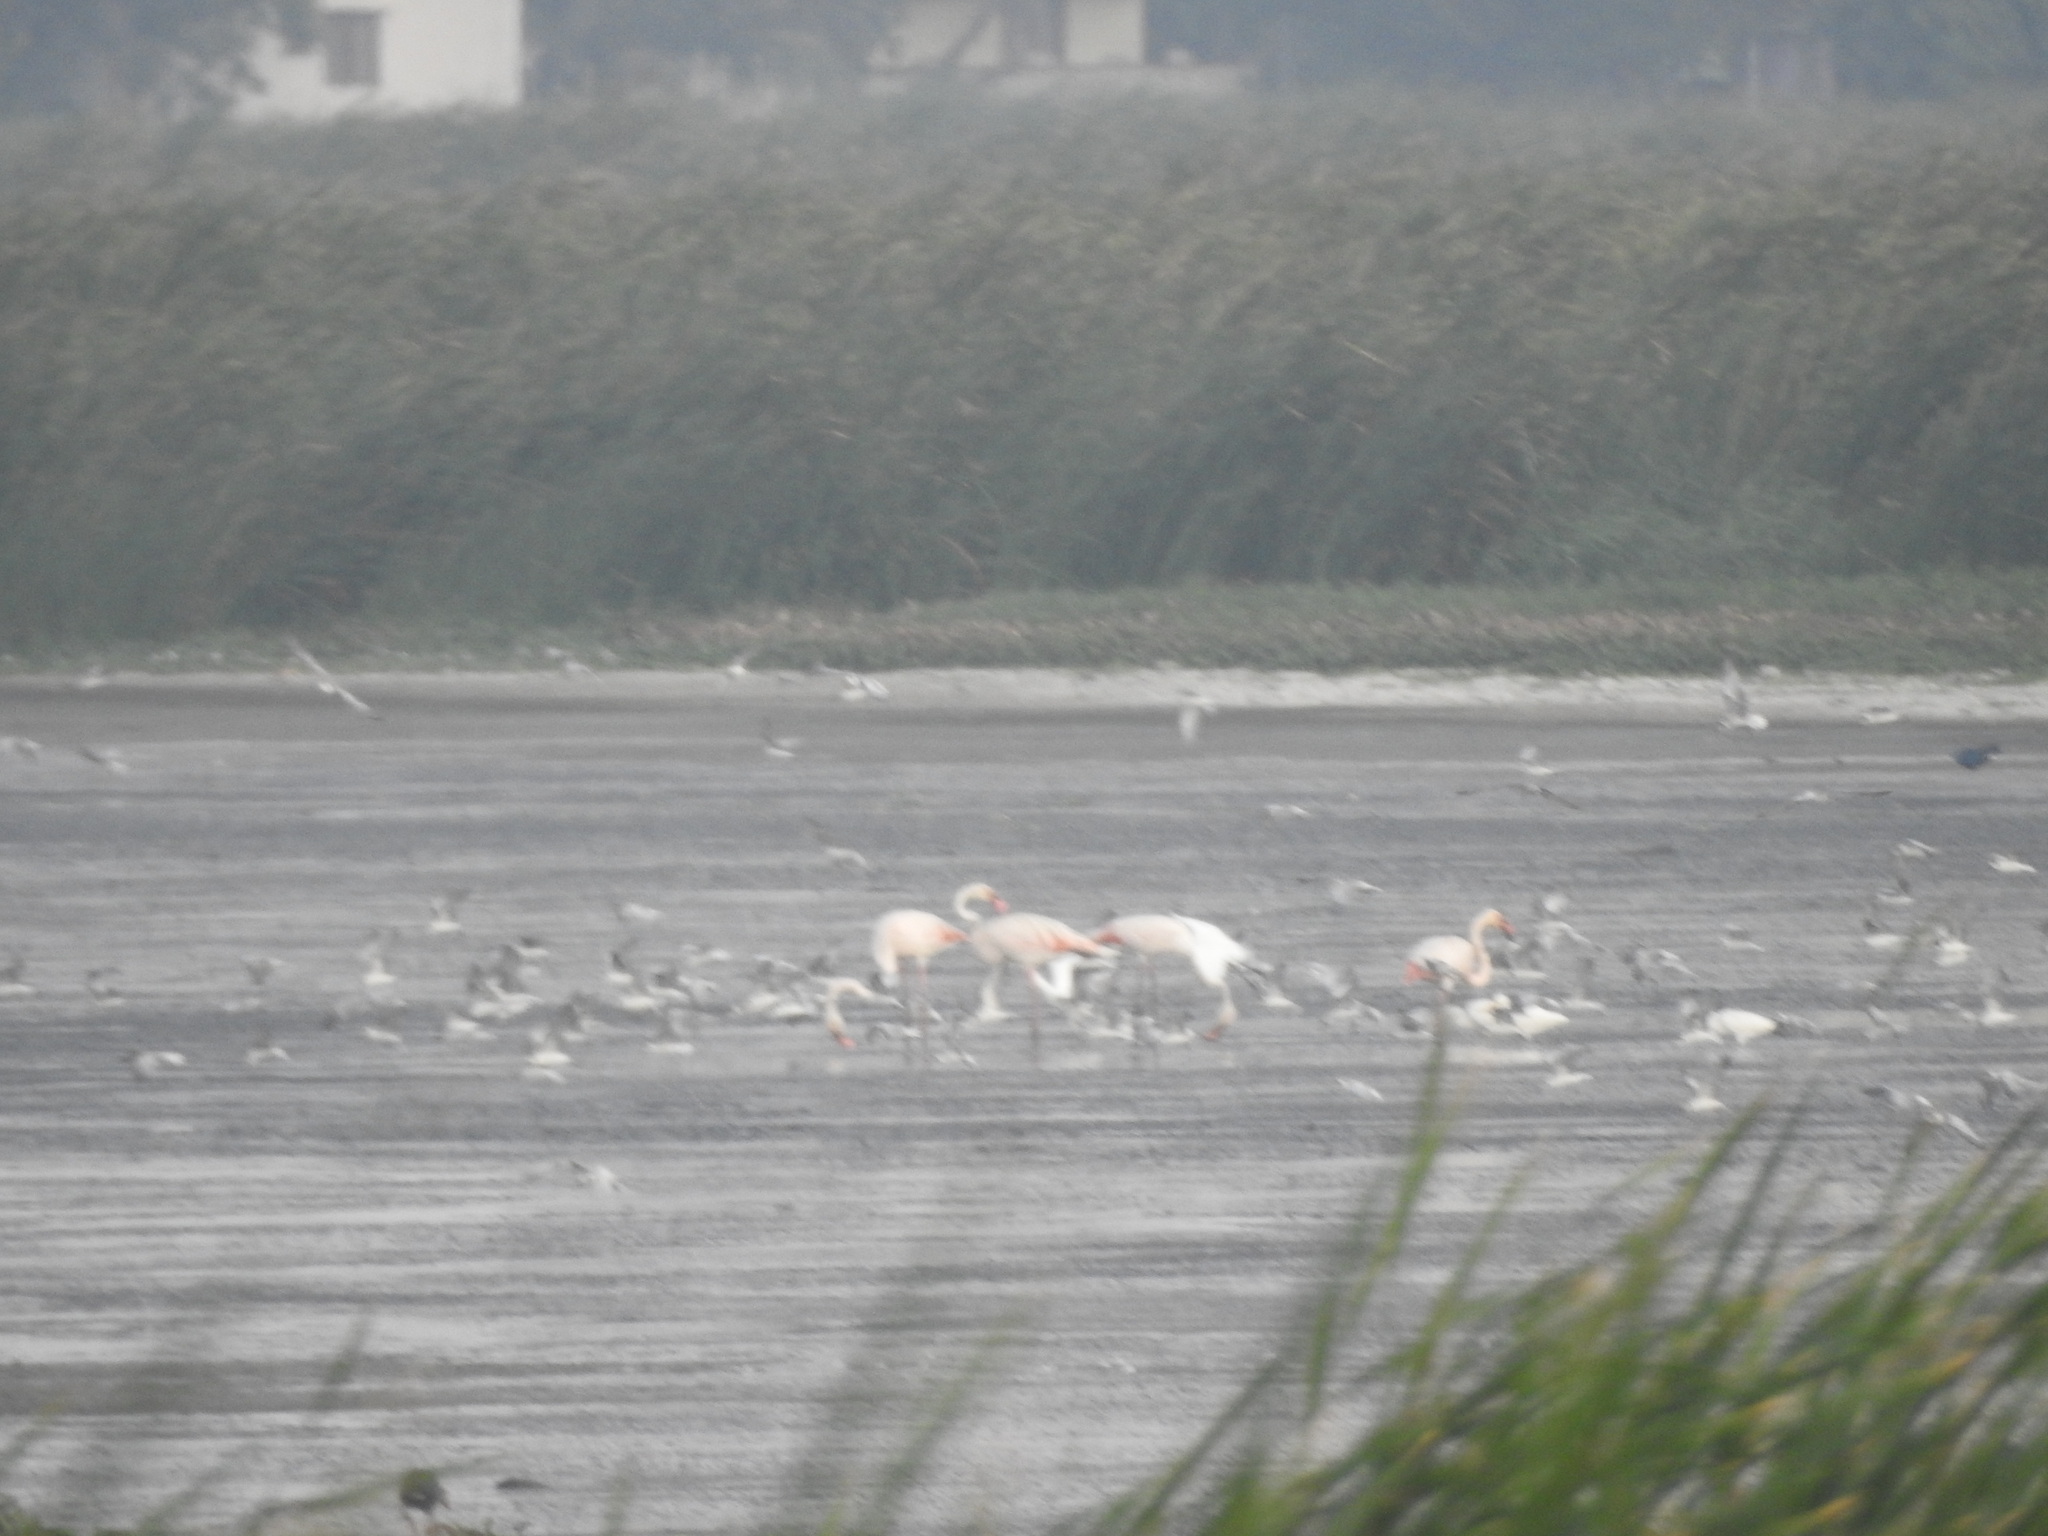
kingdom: Animalia
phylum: Chordata
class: Aves
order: Phoenicopteriformes
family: Phoenicopteridae
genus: Phoenicopterus
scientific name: Phoenicopterus roseus
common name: Greater flamingo
